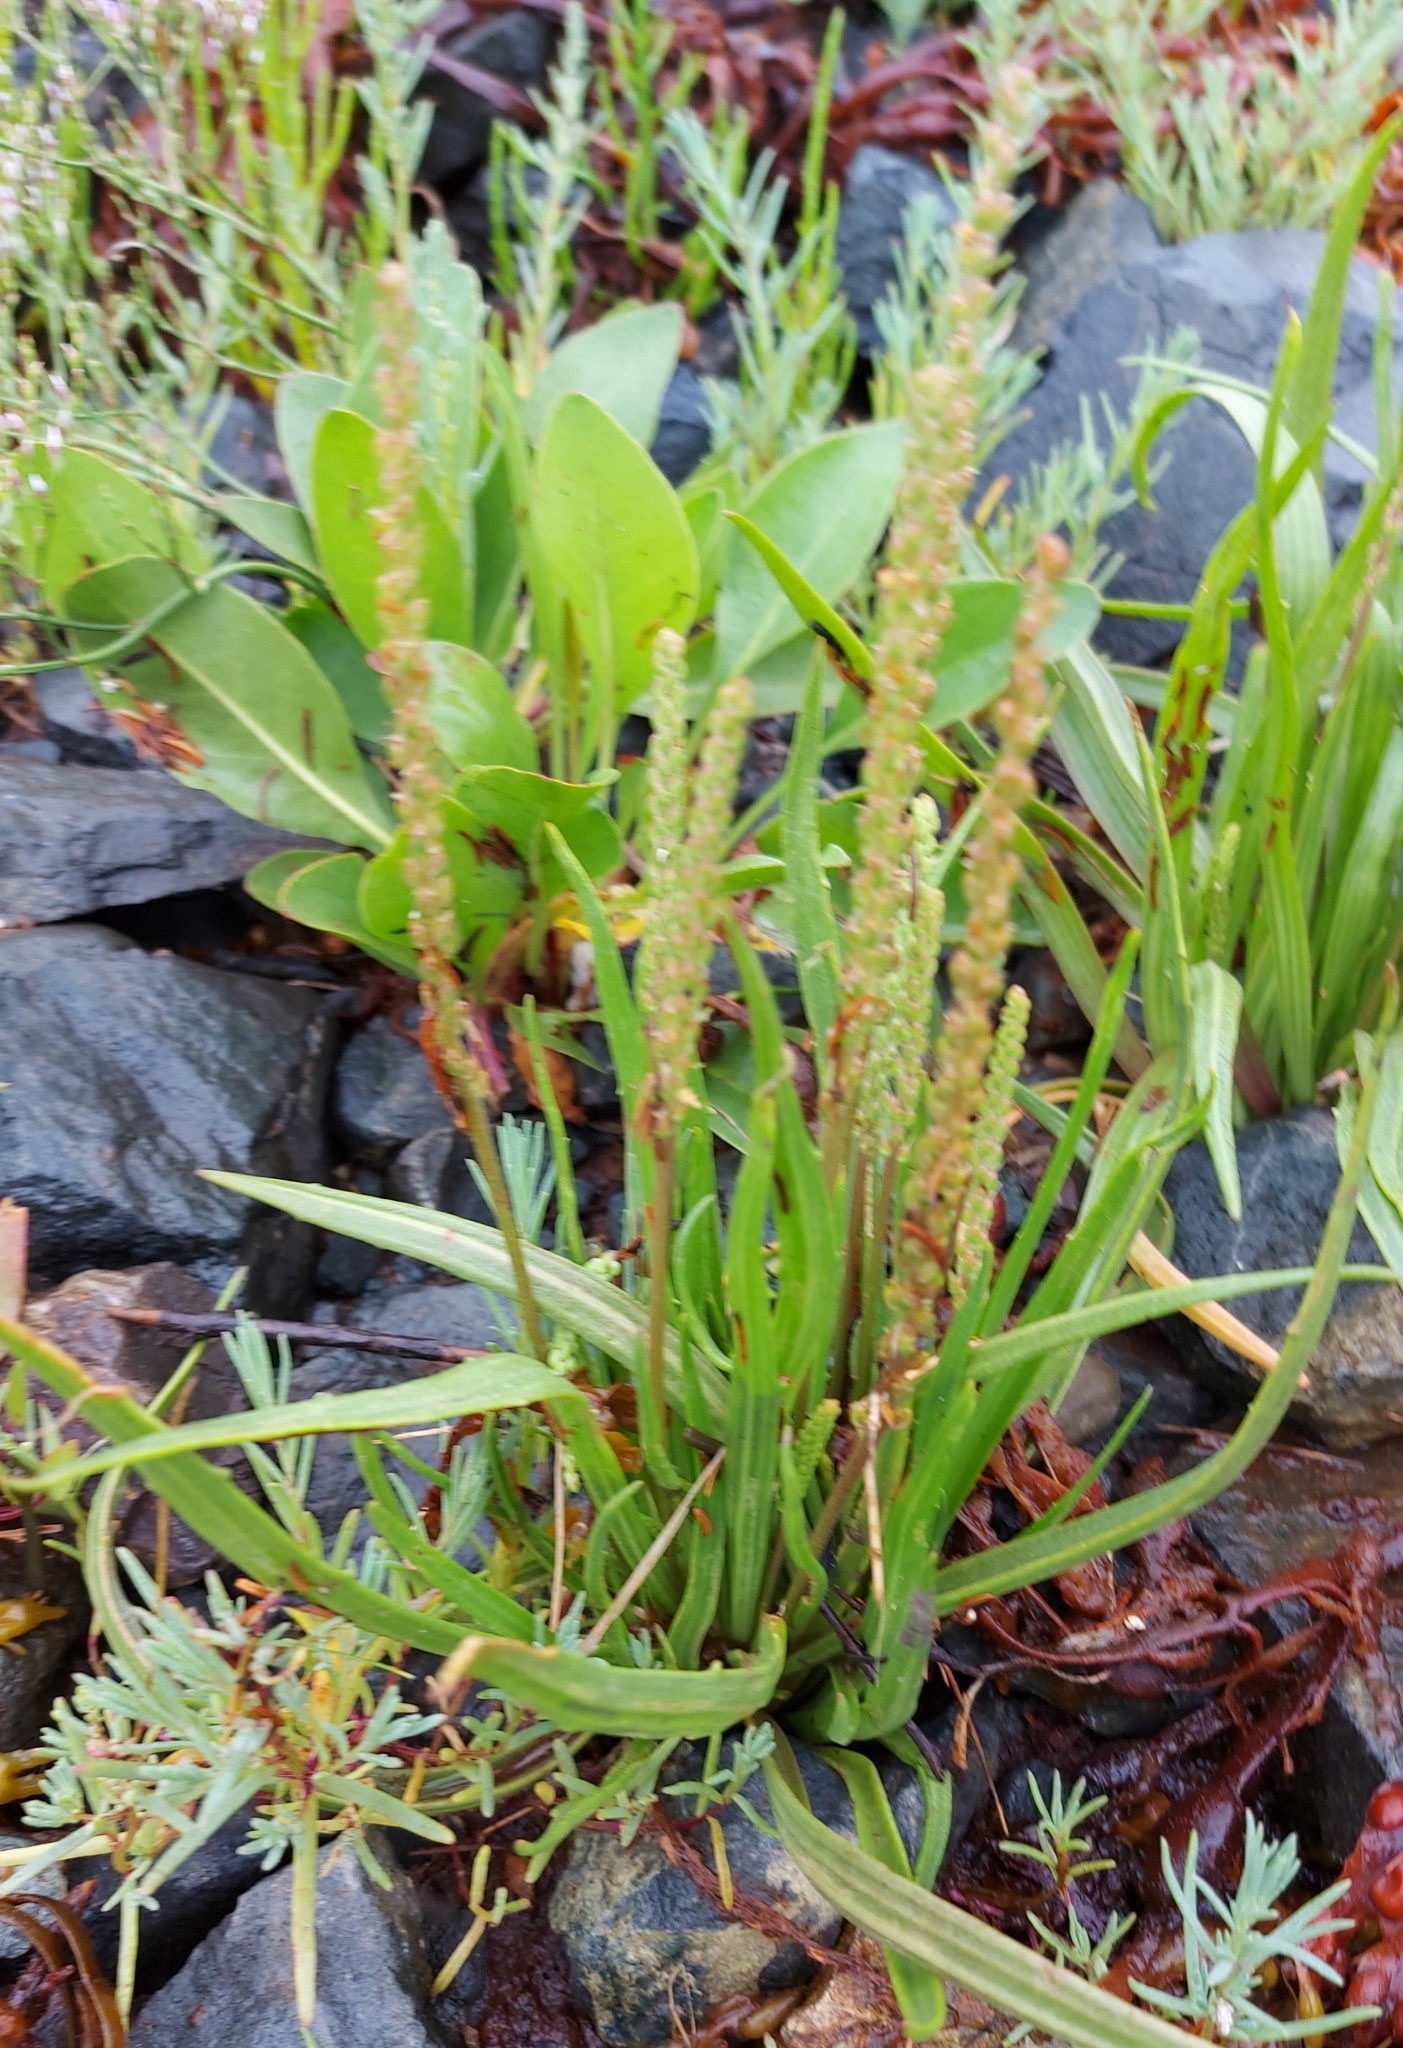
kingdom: Plantae
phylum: Tracheophyta
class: Magnoliopsida
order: Lamiales
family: Plantaginaceae
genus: Plantago
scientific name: Plantago maritima
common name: Sea plantain
